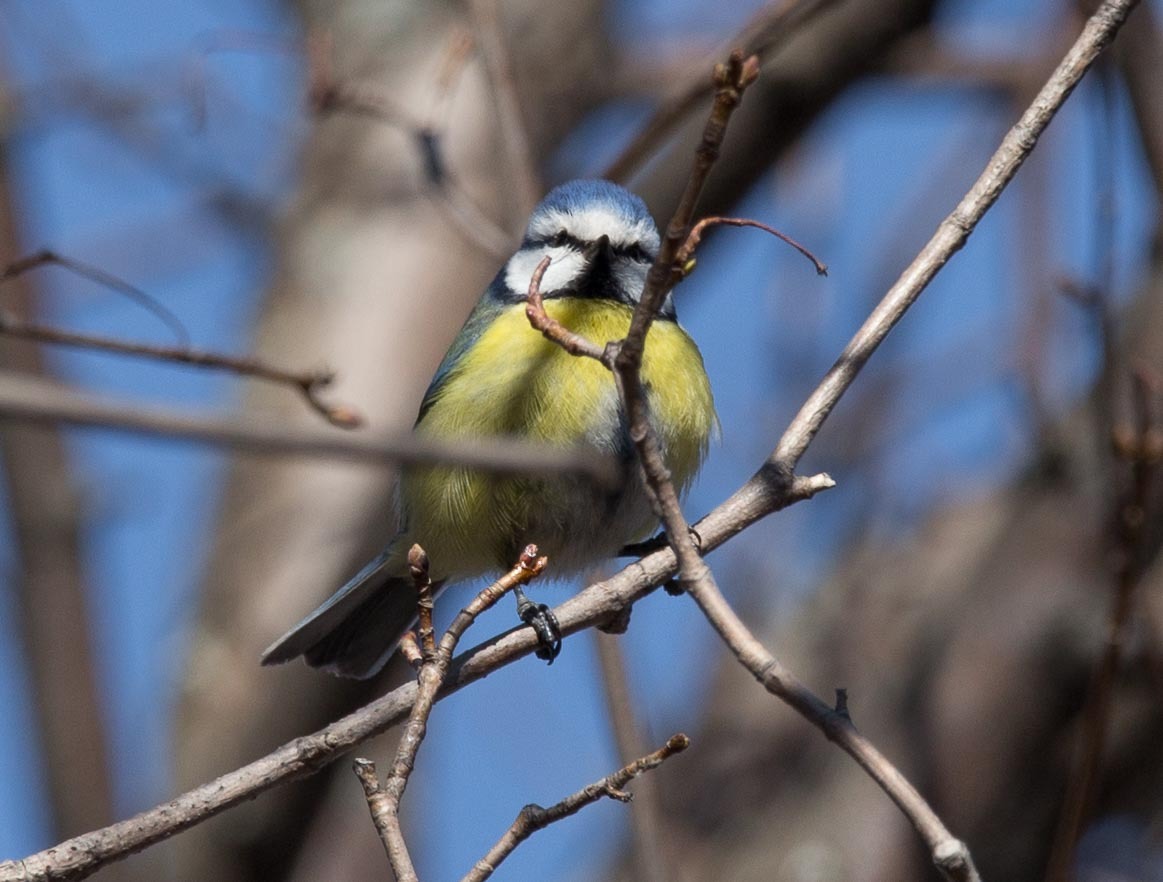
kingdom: Animalia
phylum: Chordata
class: Aves
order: Passeriformes
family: Paridae
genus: Cyanistes
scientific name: Cyanistes caeruleus
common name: Eurasian blue tit
